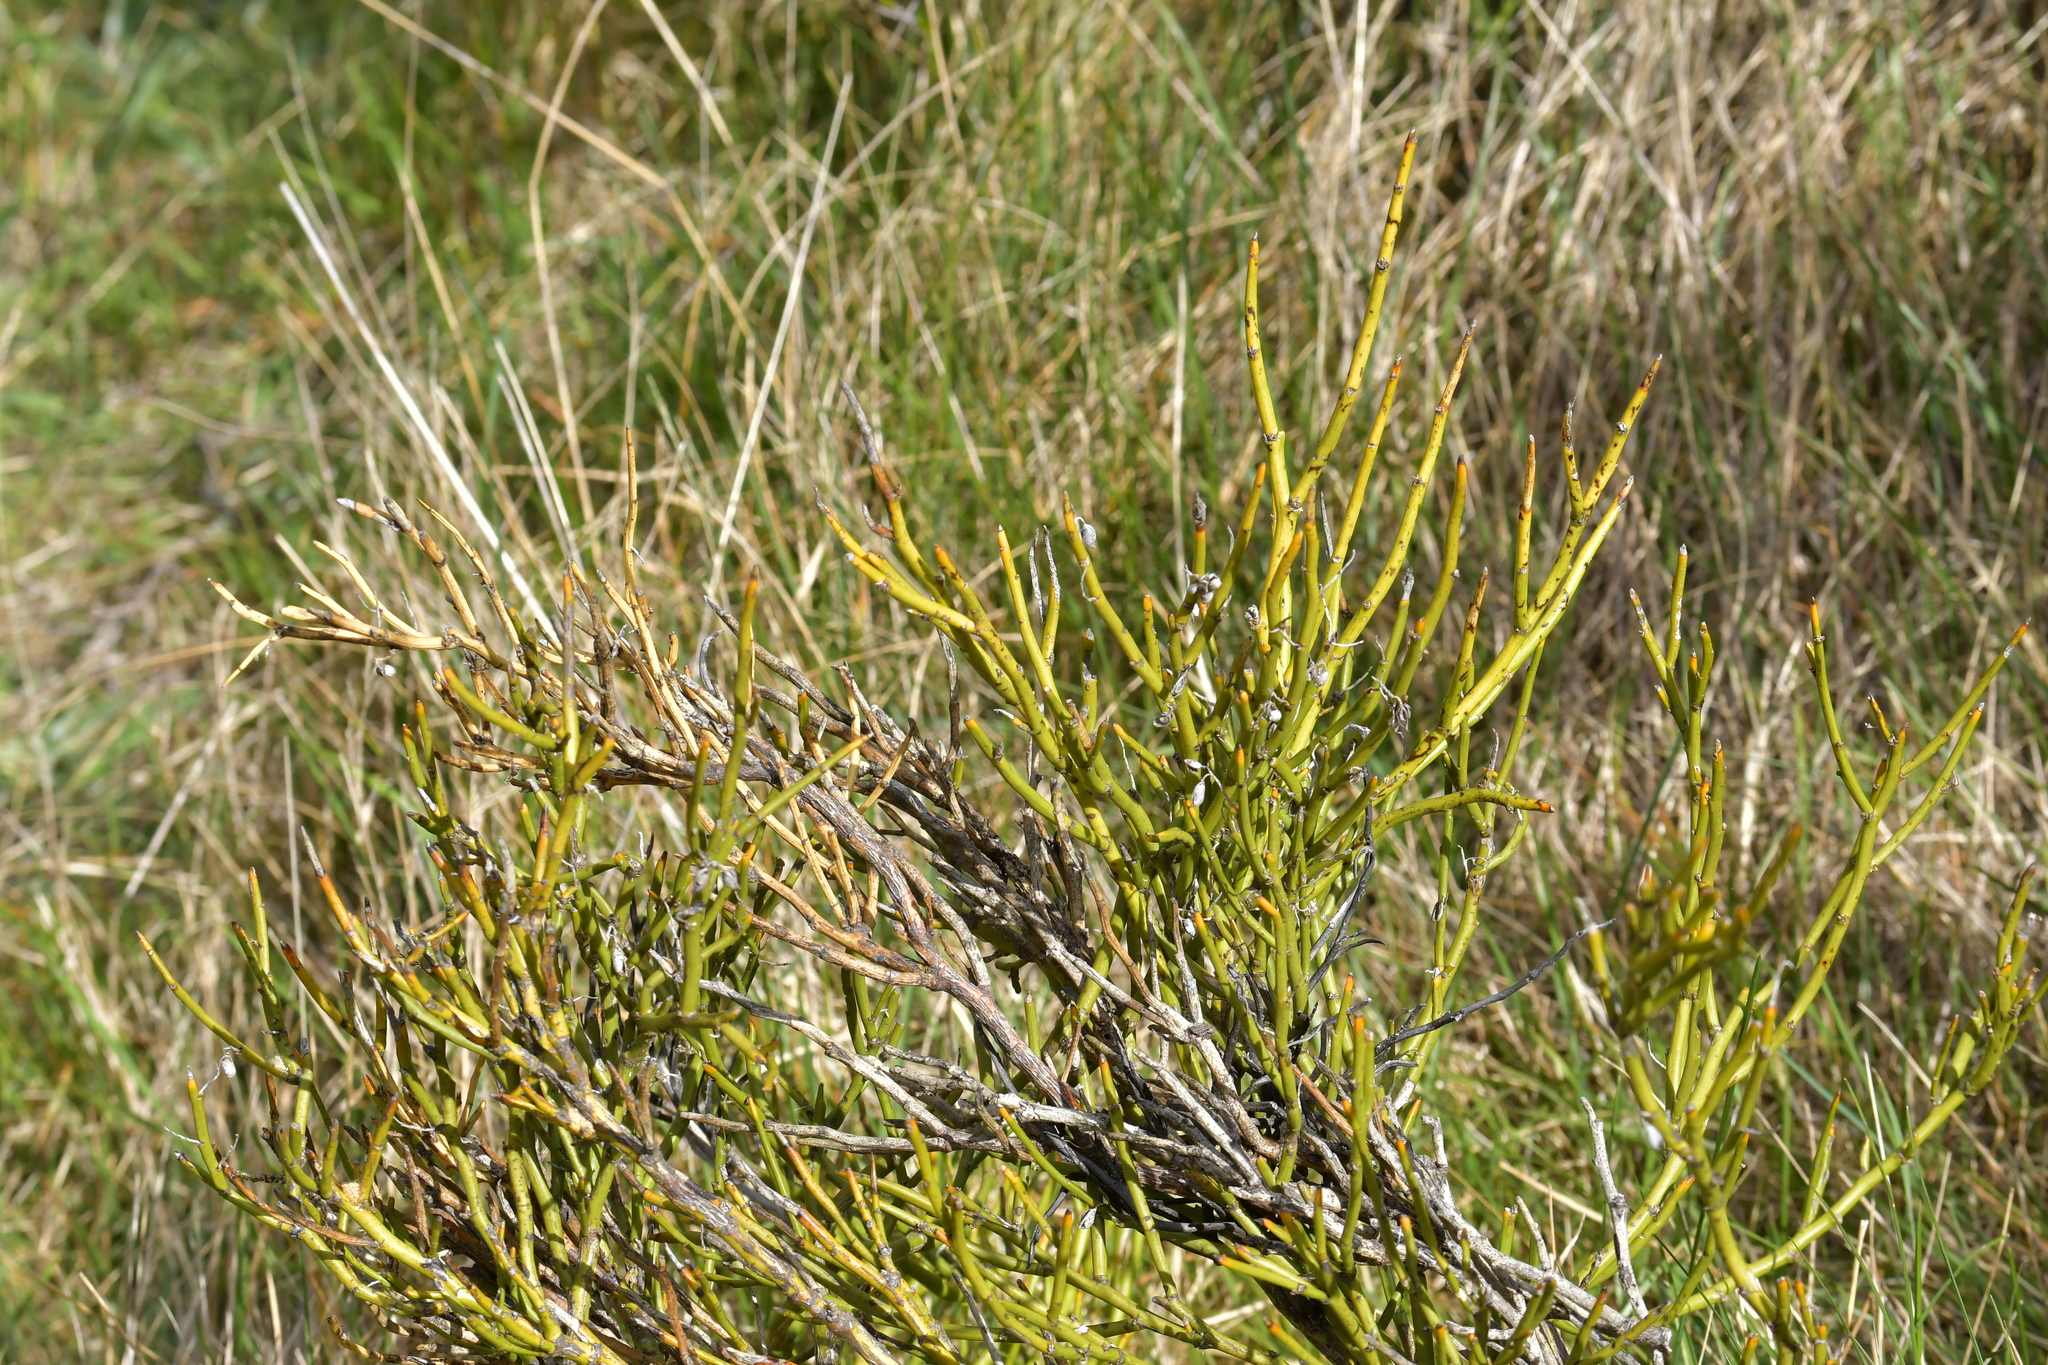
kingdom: Plantae
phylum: Tracheophyta
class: Magnoliopsida
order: Fabales
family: Fabaceae
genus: Carmichaelia
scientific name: Carmichaelia petriei
